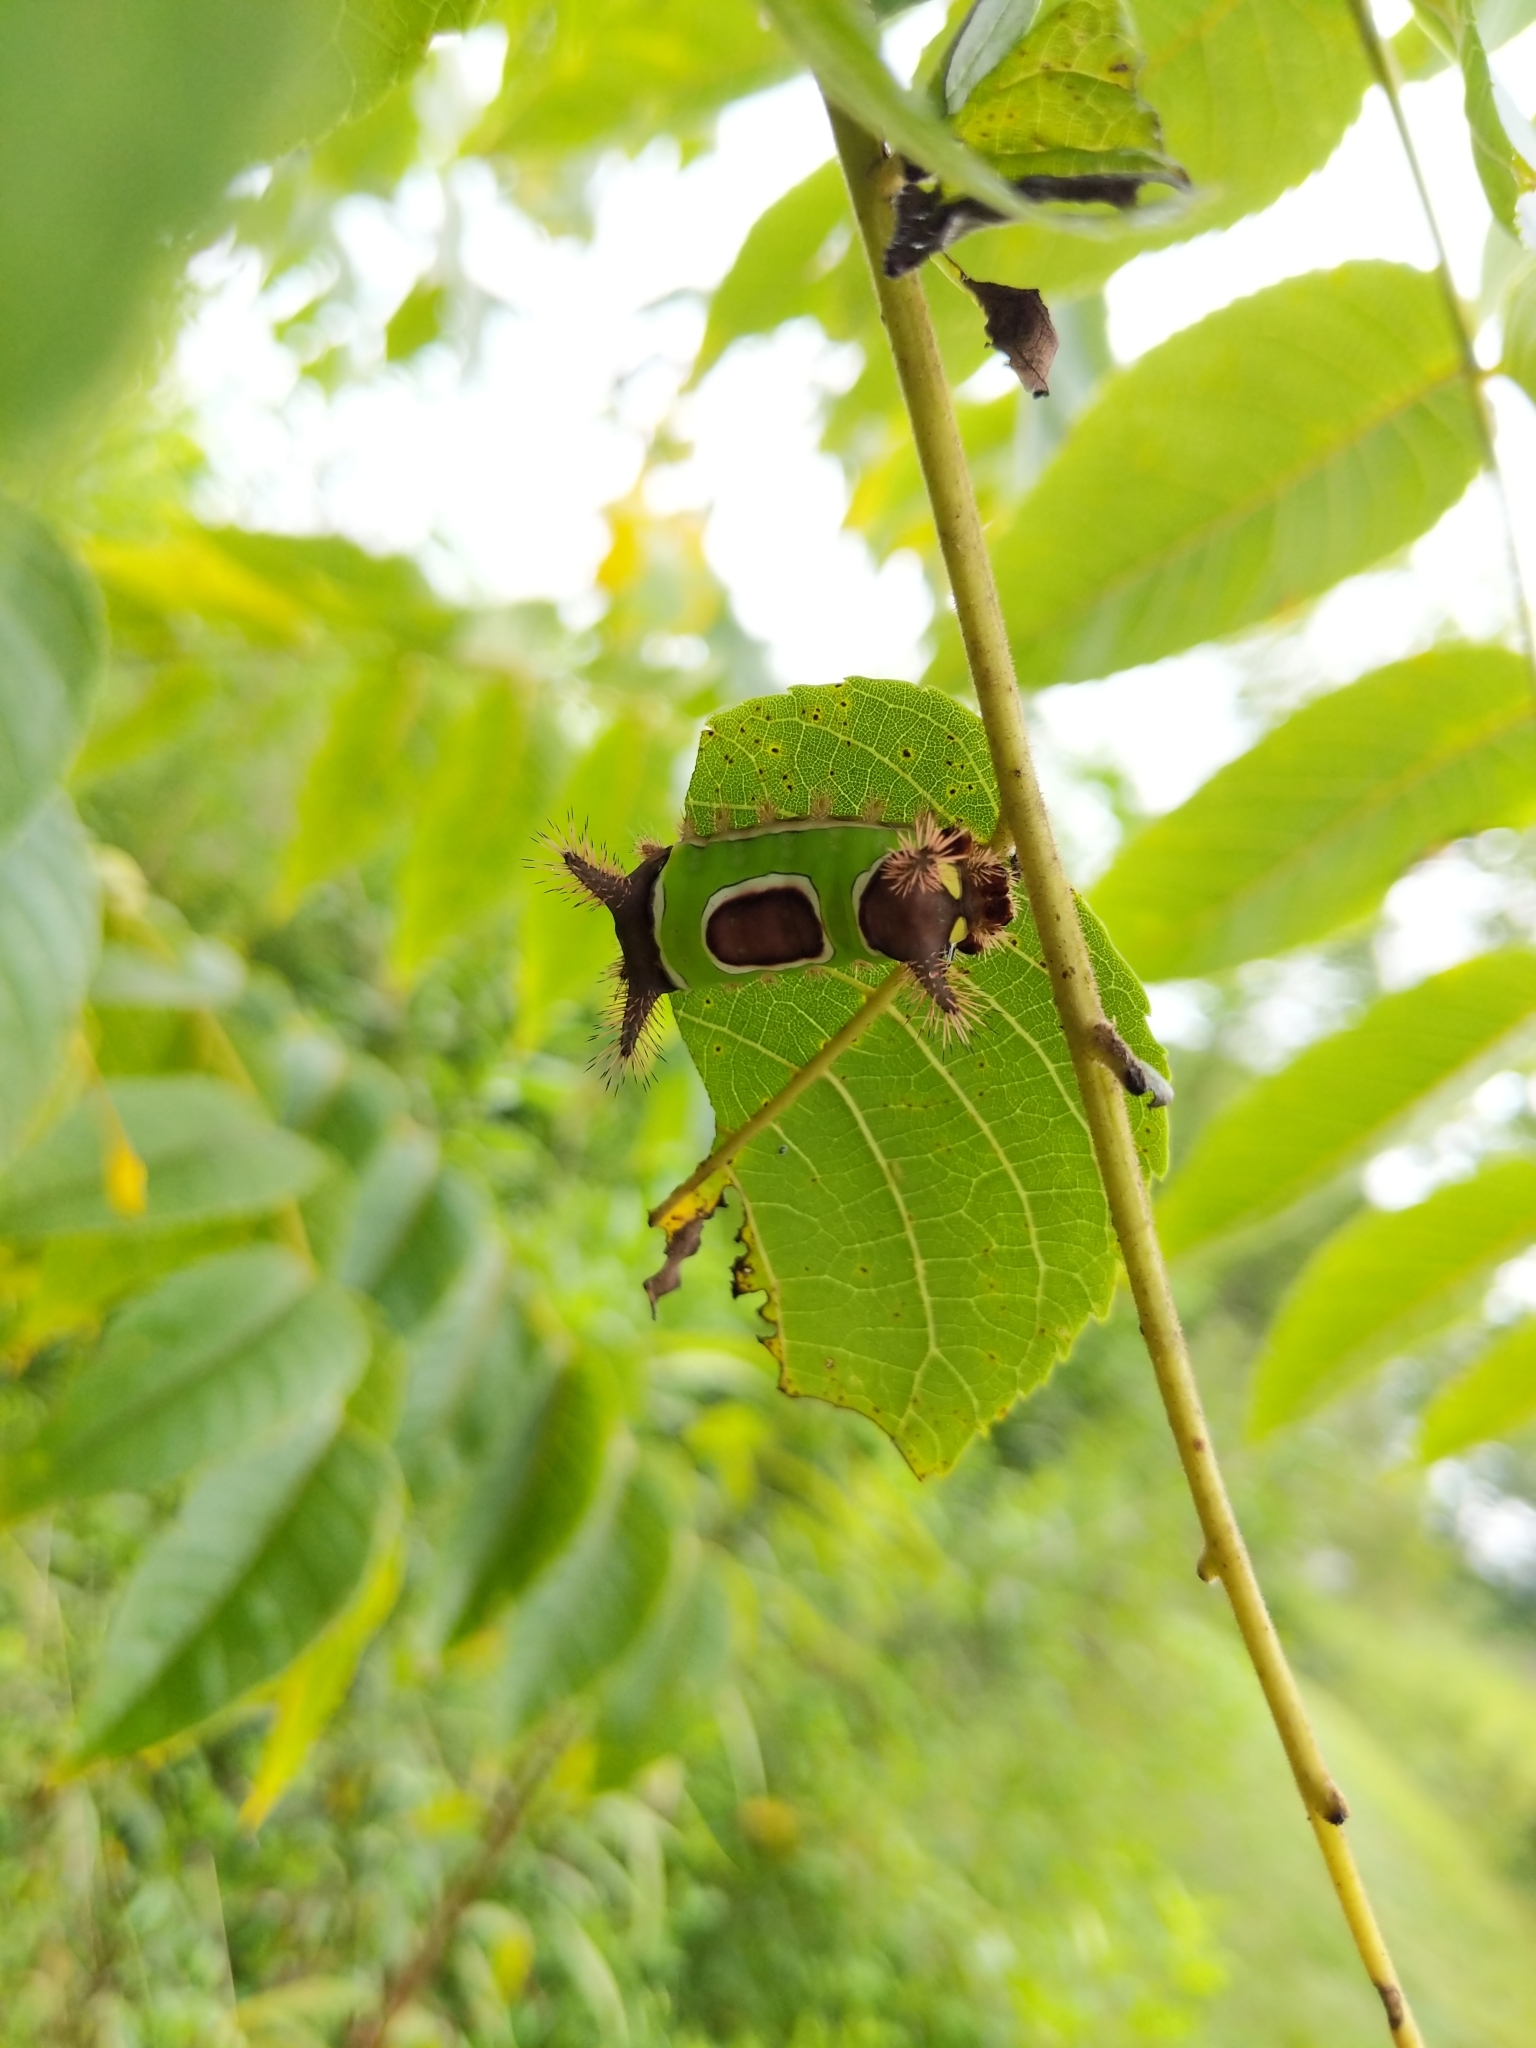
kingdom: Animalia
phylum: Arthropoda
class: Insecta
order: Lepidoptera
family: Limacodidae
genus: Acharia
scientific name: Acharia stimulea
